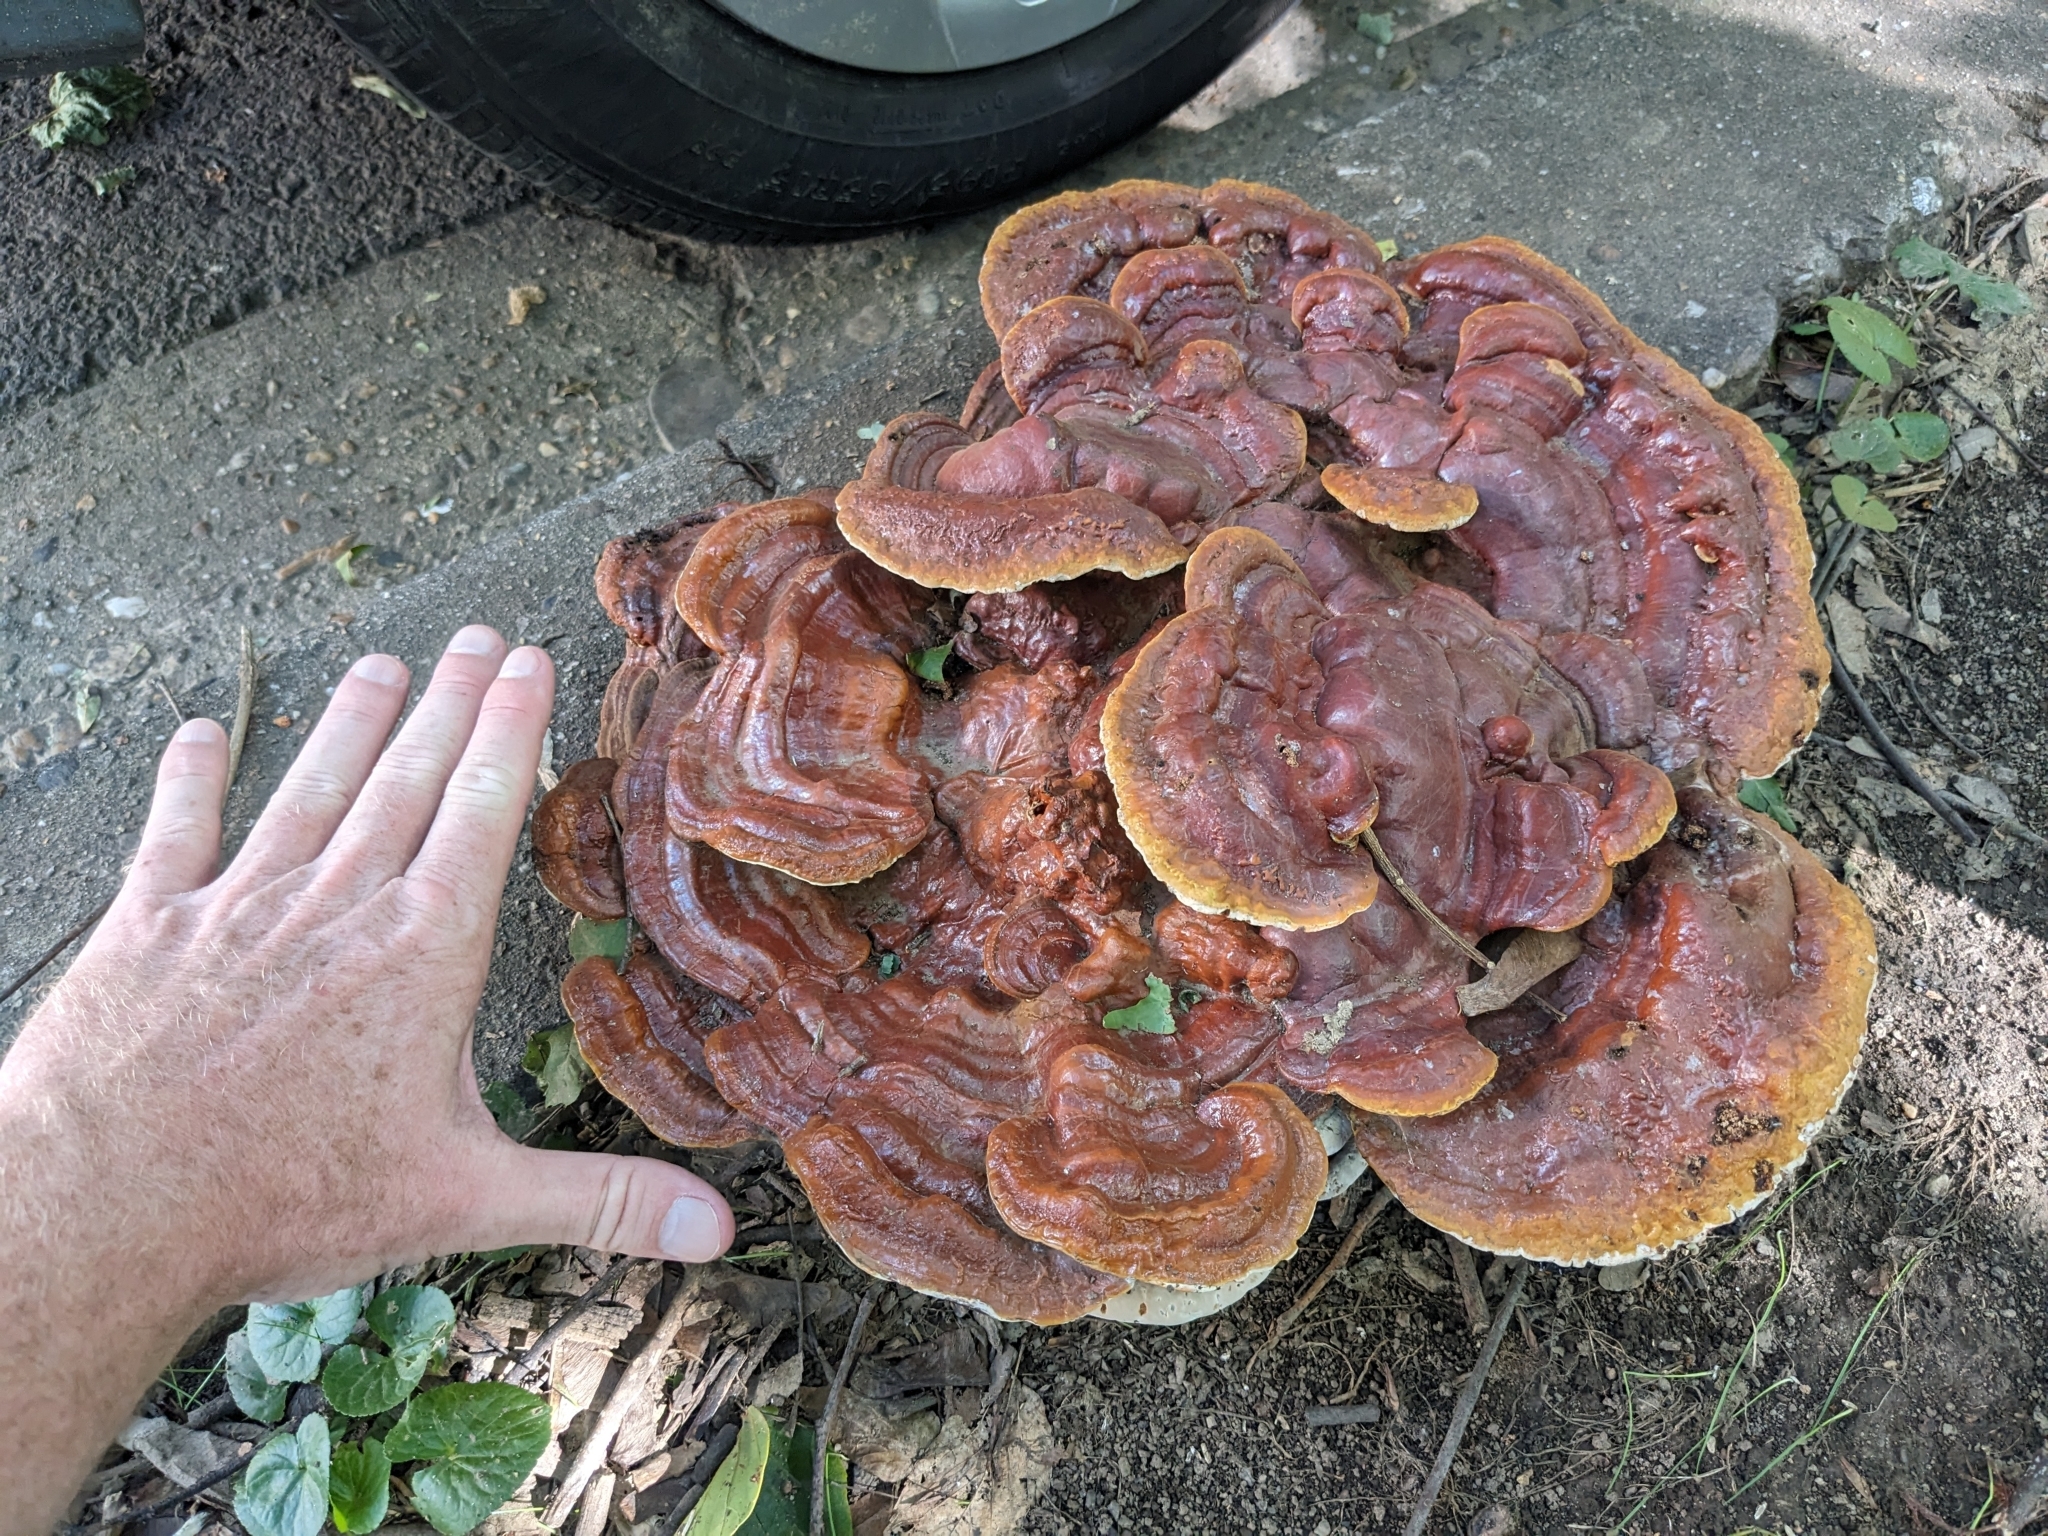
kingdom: Fungi
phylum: Basidiomycota
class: Agaricomycetes
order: Polyporales
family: Polyporaceae
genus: Ganoderma
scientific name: Ganoderma resinaceum
